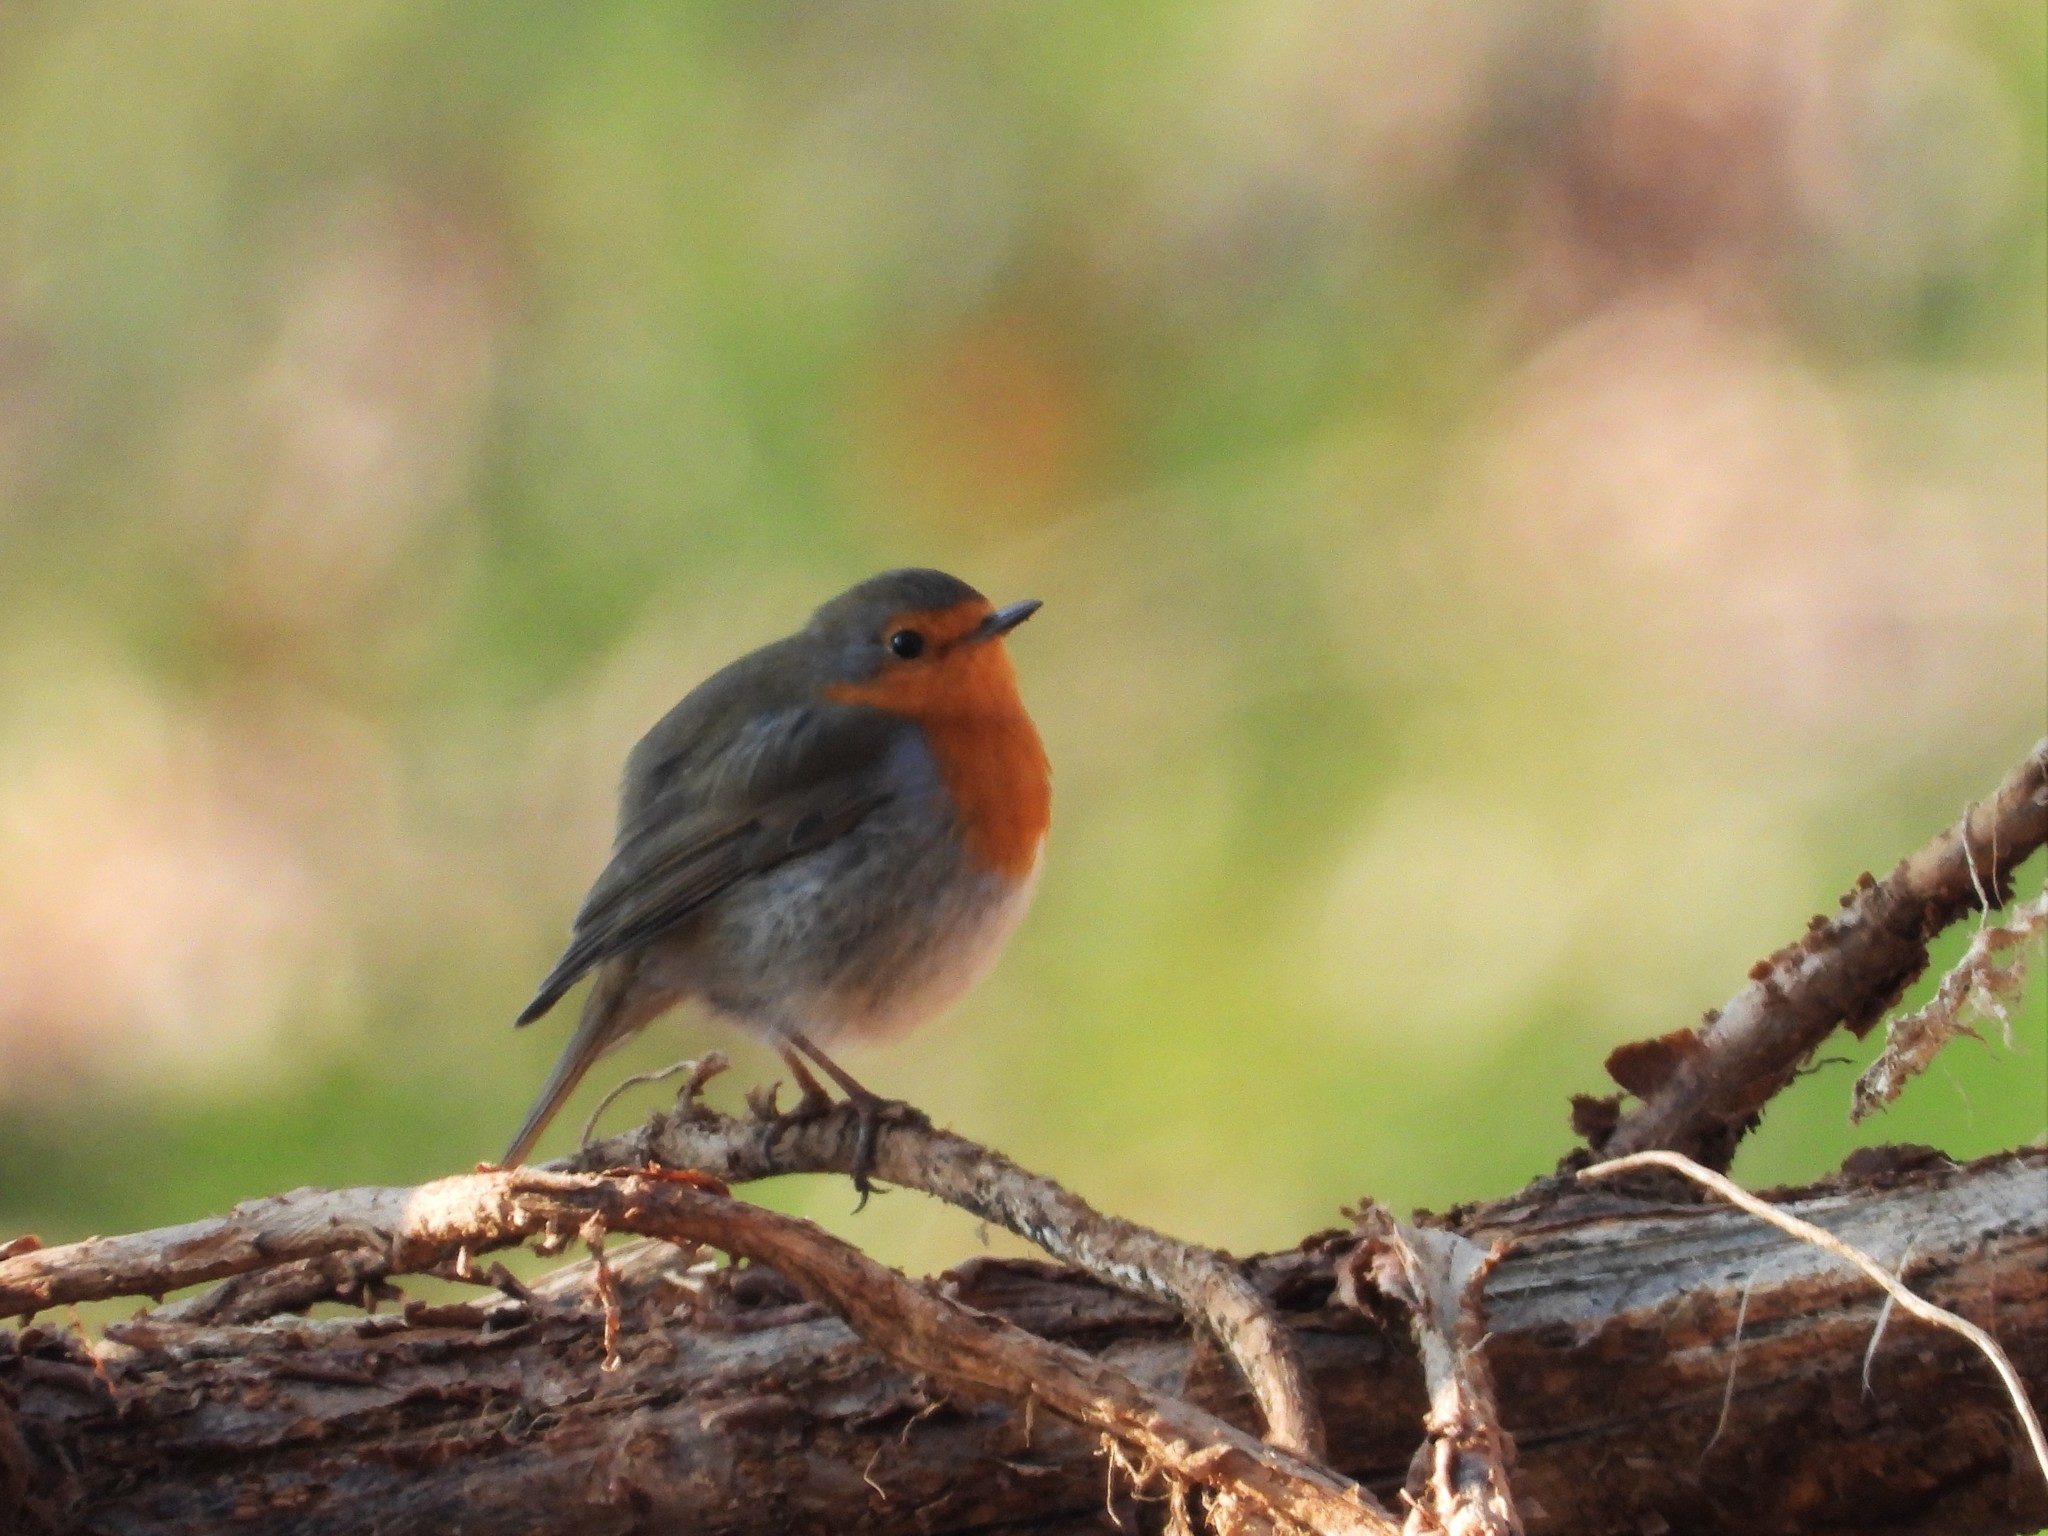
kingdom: Animalia
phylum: Chordata
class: Aves
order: Passeriformes
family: Muscicapidae
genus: Erithacus
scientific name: Erithacus rubecula
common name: European robin
